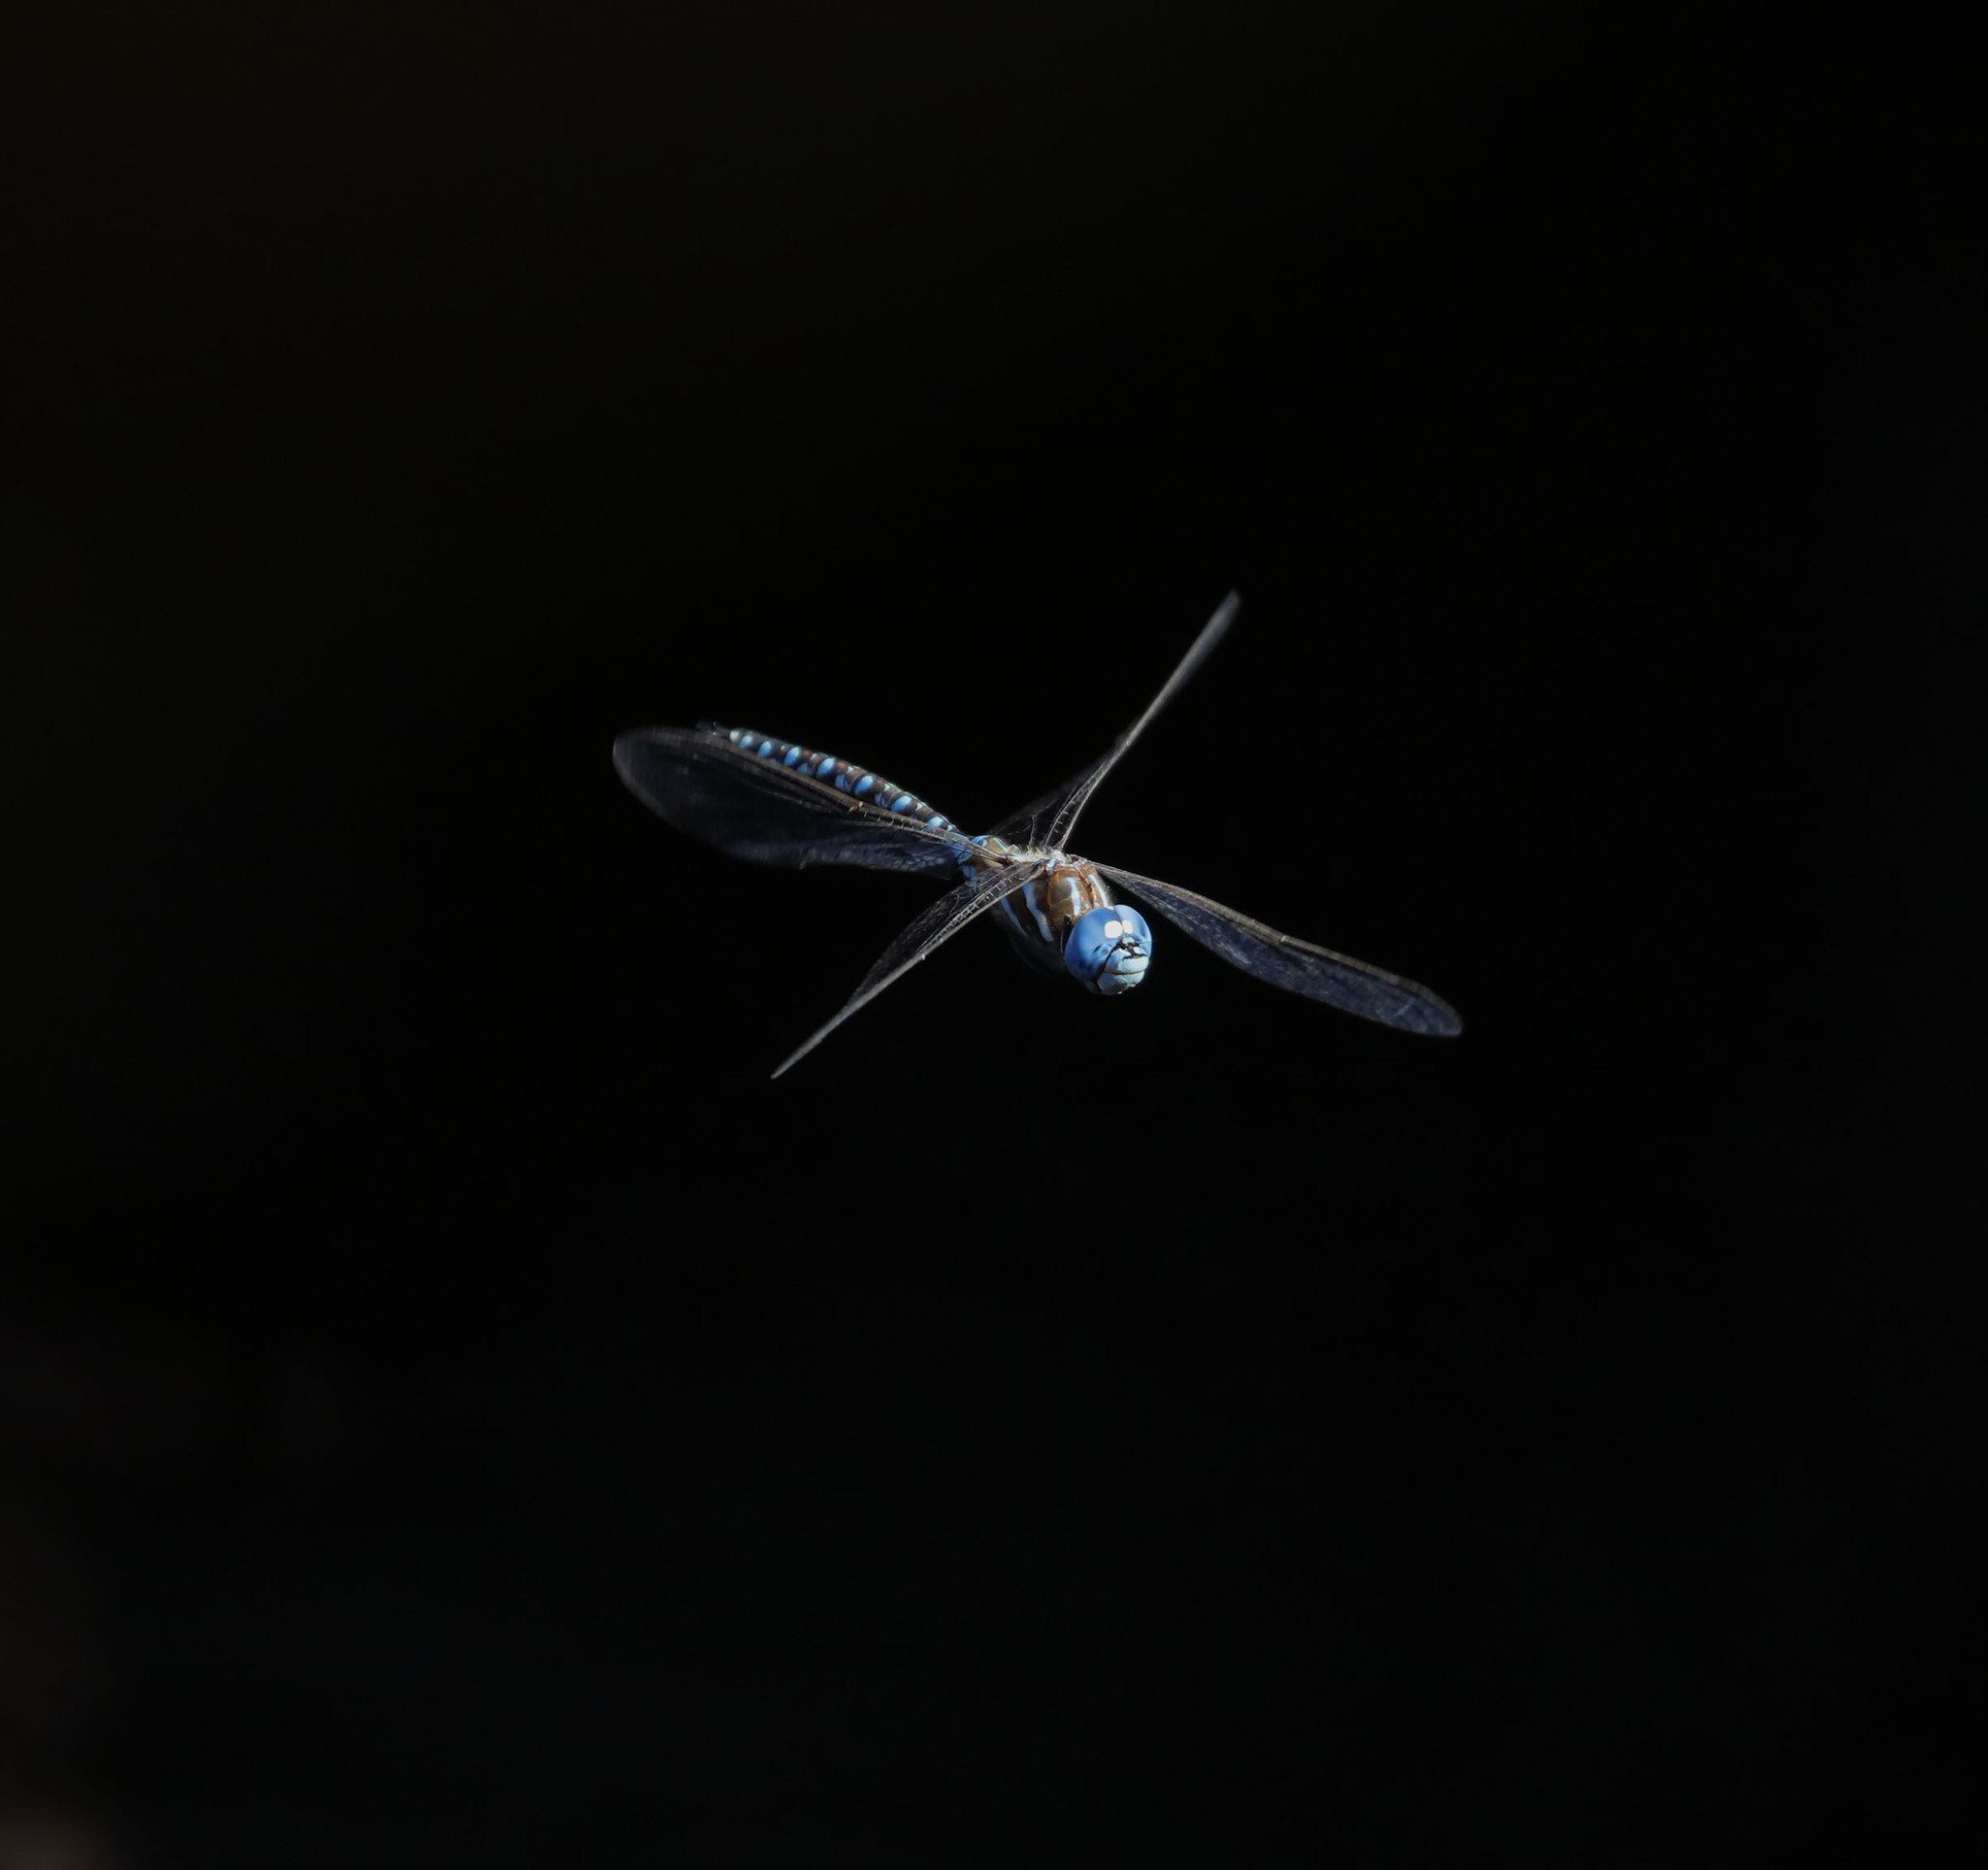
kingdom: Animalia
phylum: Arthropoda
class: Insecta
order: Odonata
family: Aeshnidae
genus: Rhionaeschna
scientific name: Rhionaeschna multicolor
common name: Blue-eyed darner
